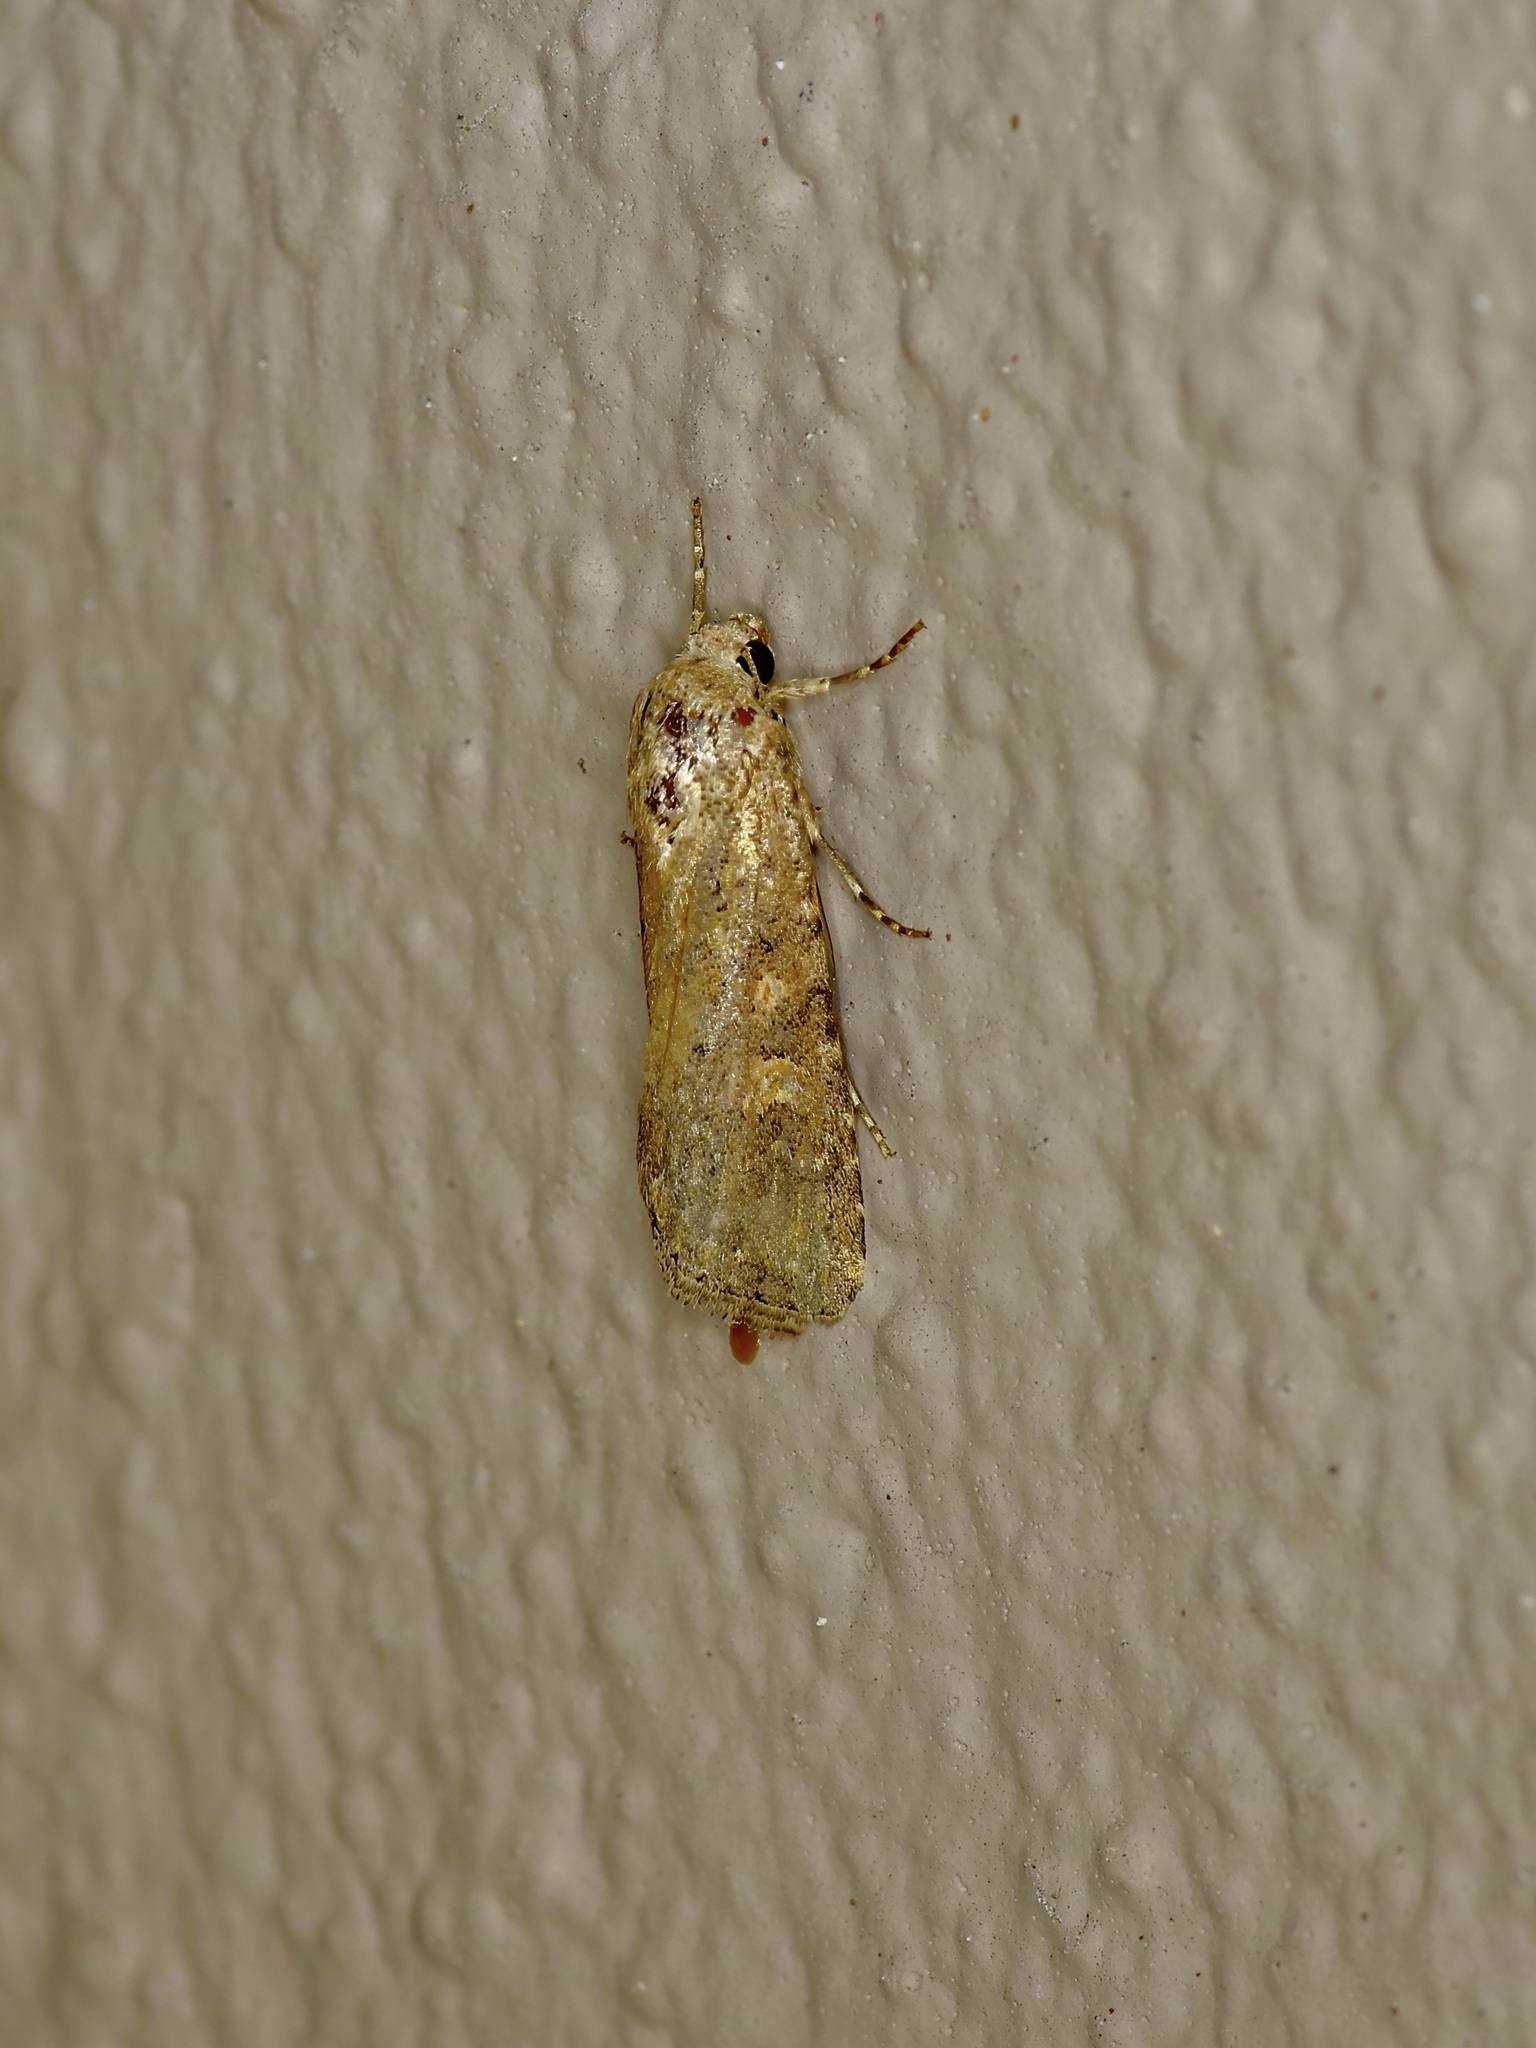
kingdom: Animalia
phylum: Arthropoda
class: Insecta
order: Lepidoptera
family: Noctuidae
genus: Spodoptera
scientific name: Spodoptera exigua
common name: Beet armyworm
